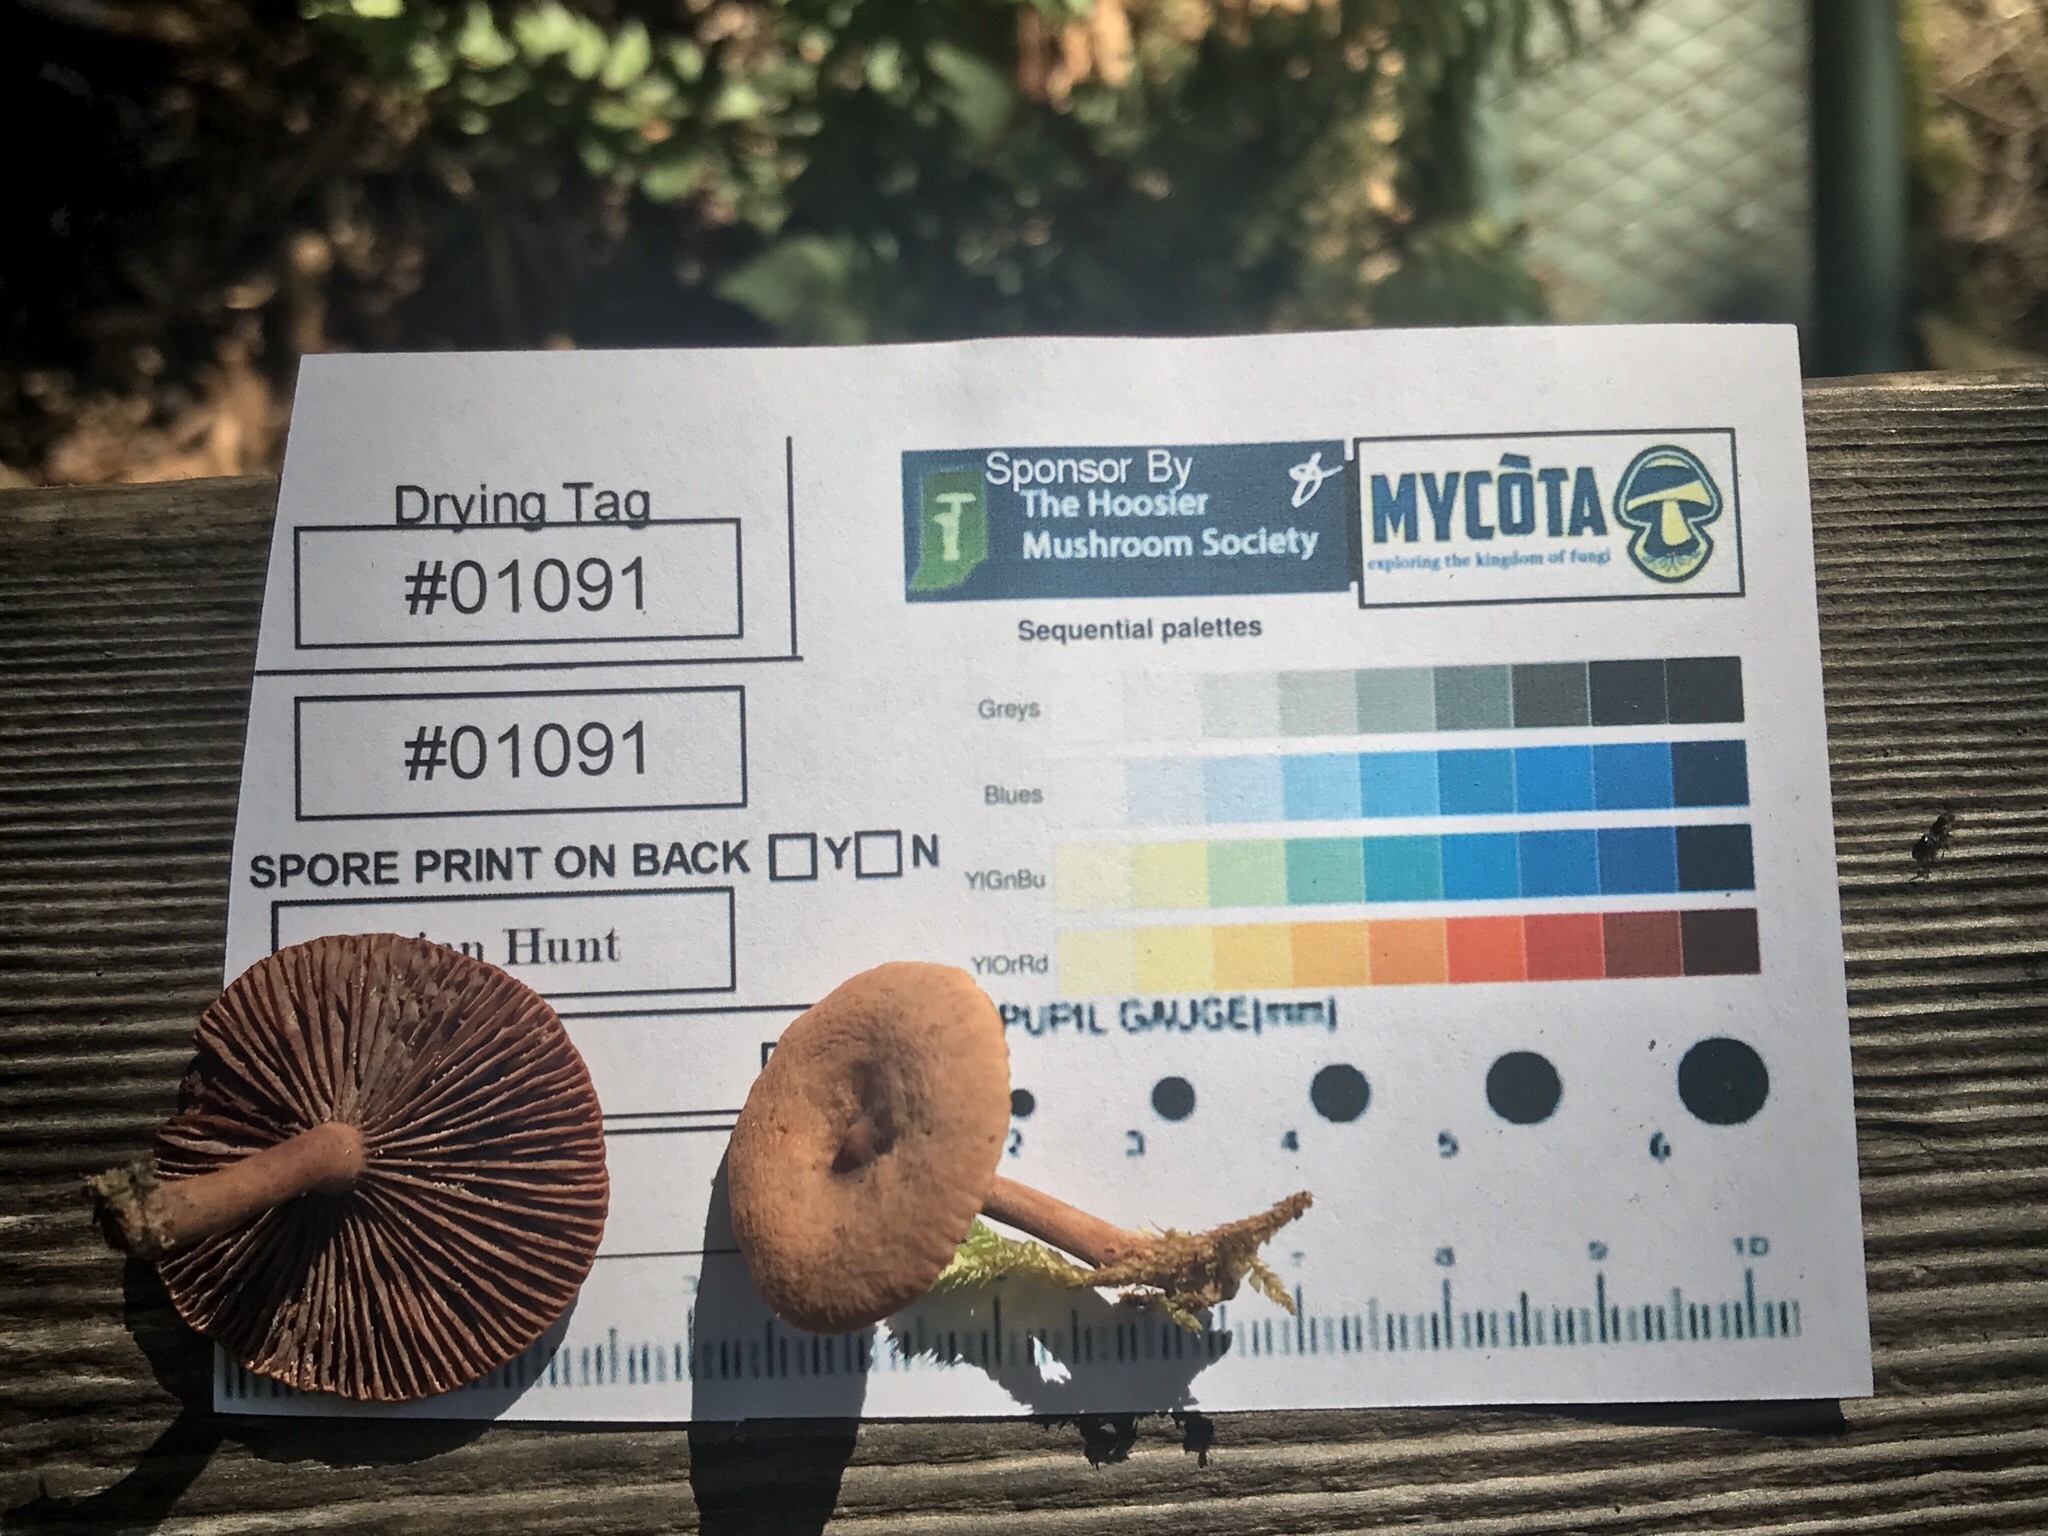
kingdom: Fungi
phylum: Basidiomycota
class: Agaricomycetes
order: Russulales
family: Russulaceae
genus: Lactarius
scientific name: Lactarius camphoratus
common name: Curry milkcap
